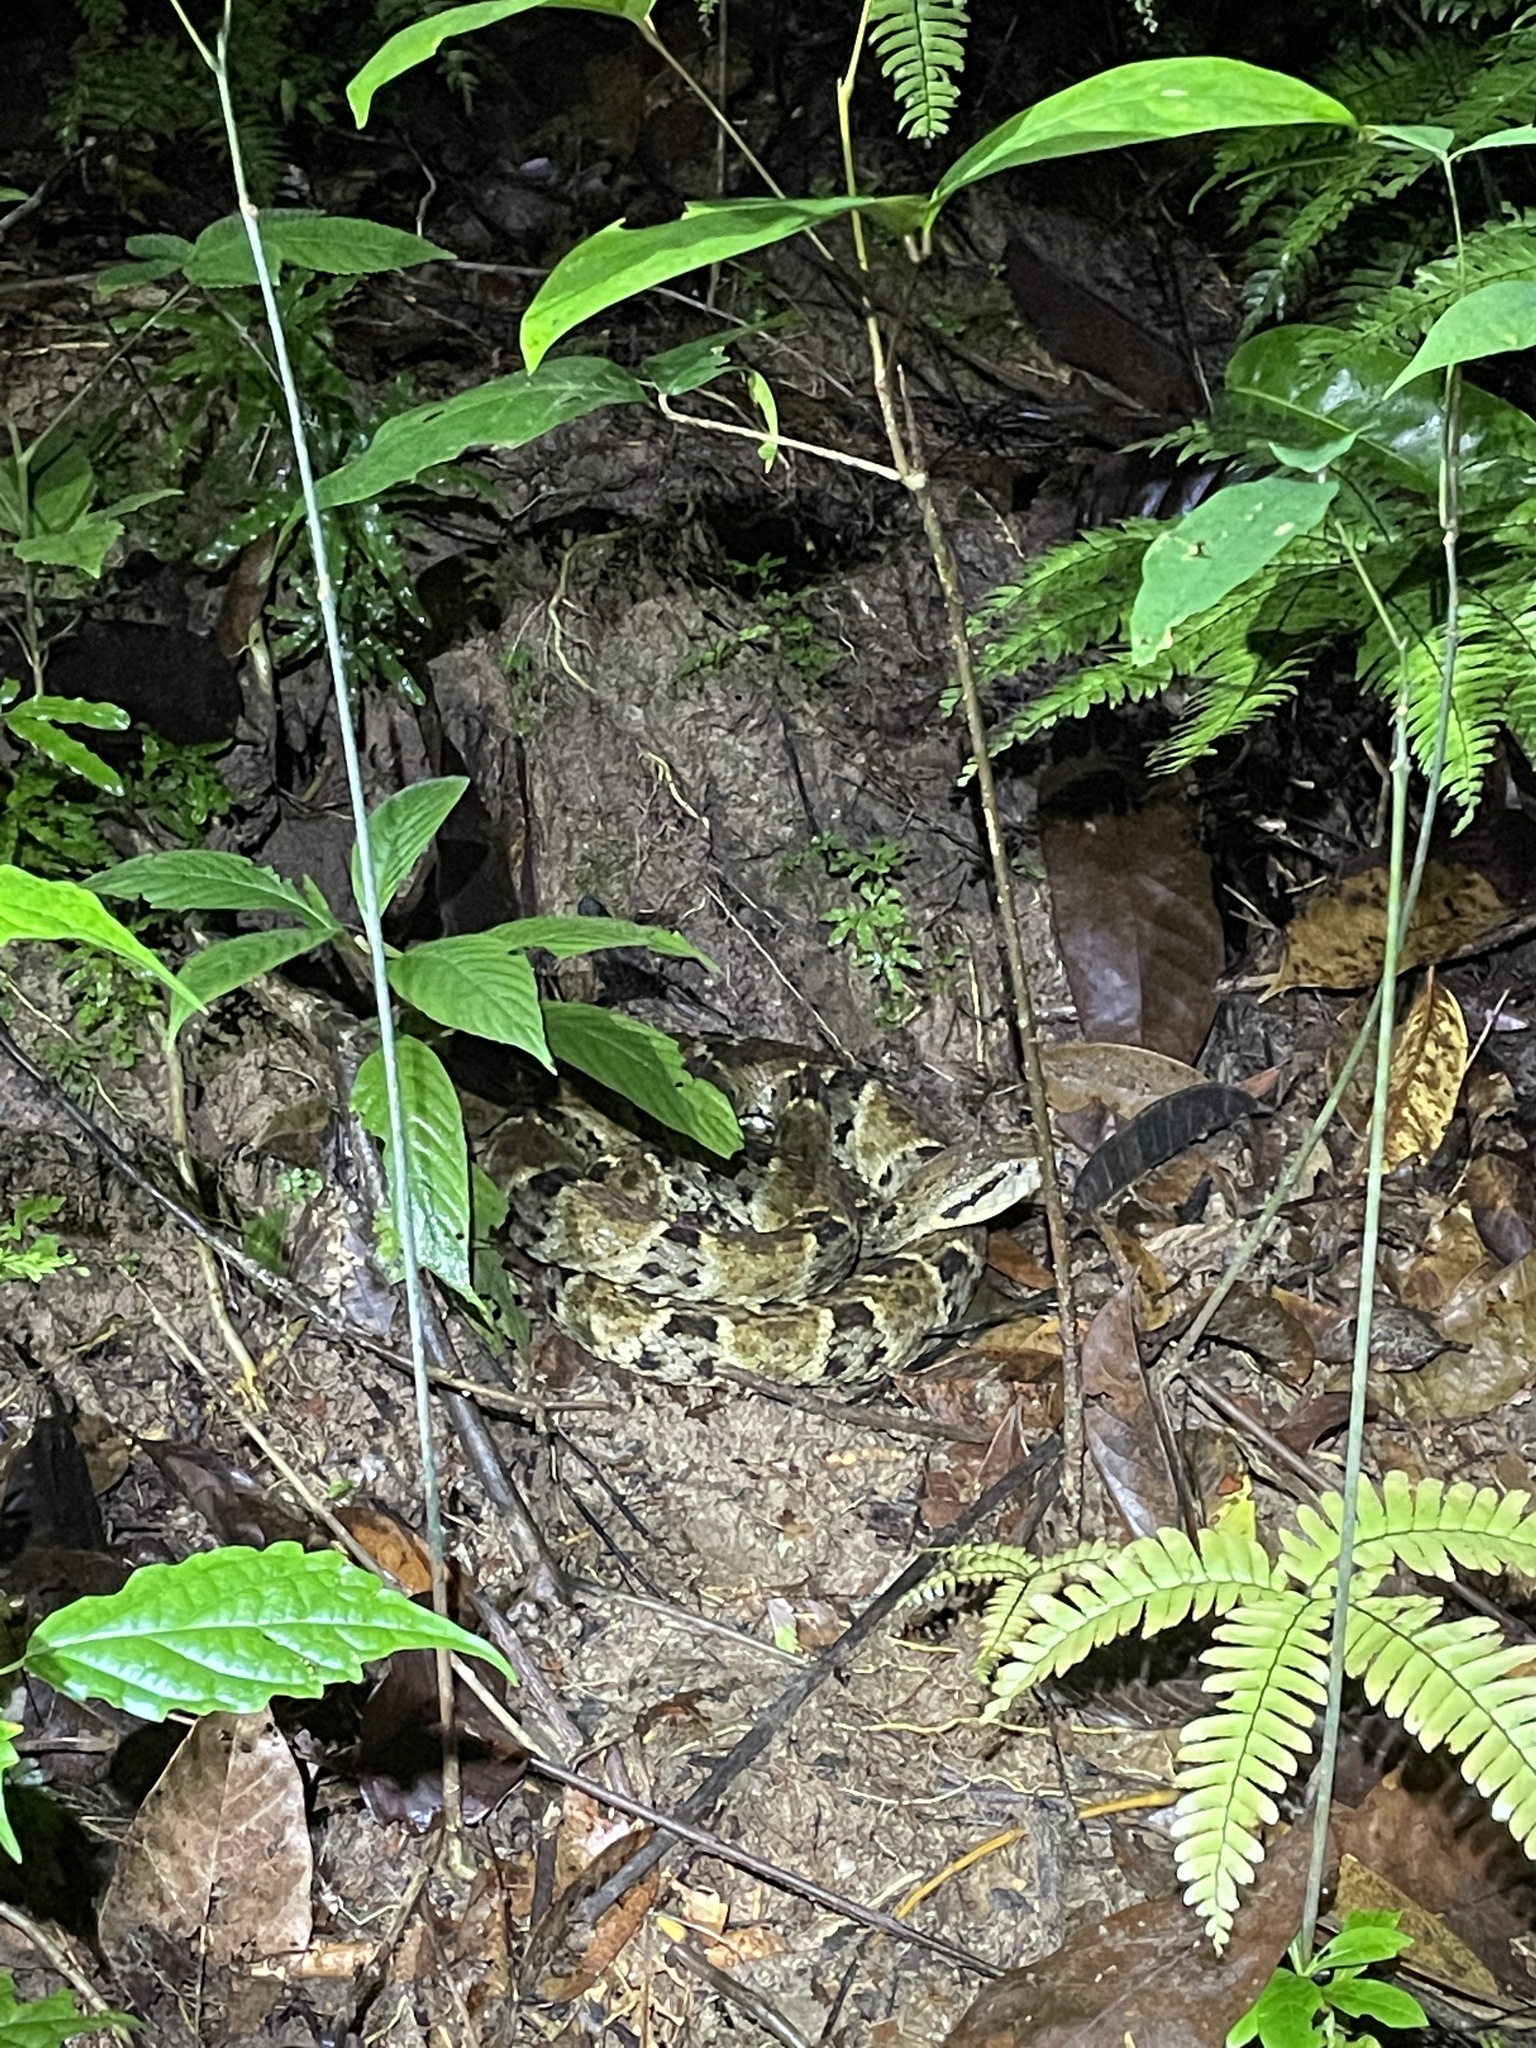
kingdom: Animalia
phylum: Chordata
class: Squamata
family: Viperidae
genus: Bothrops
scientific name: Bothrops atrox
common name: Common lancehead
